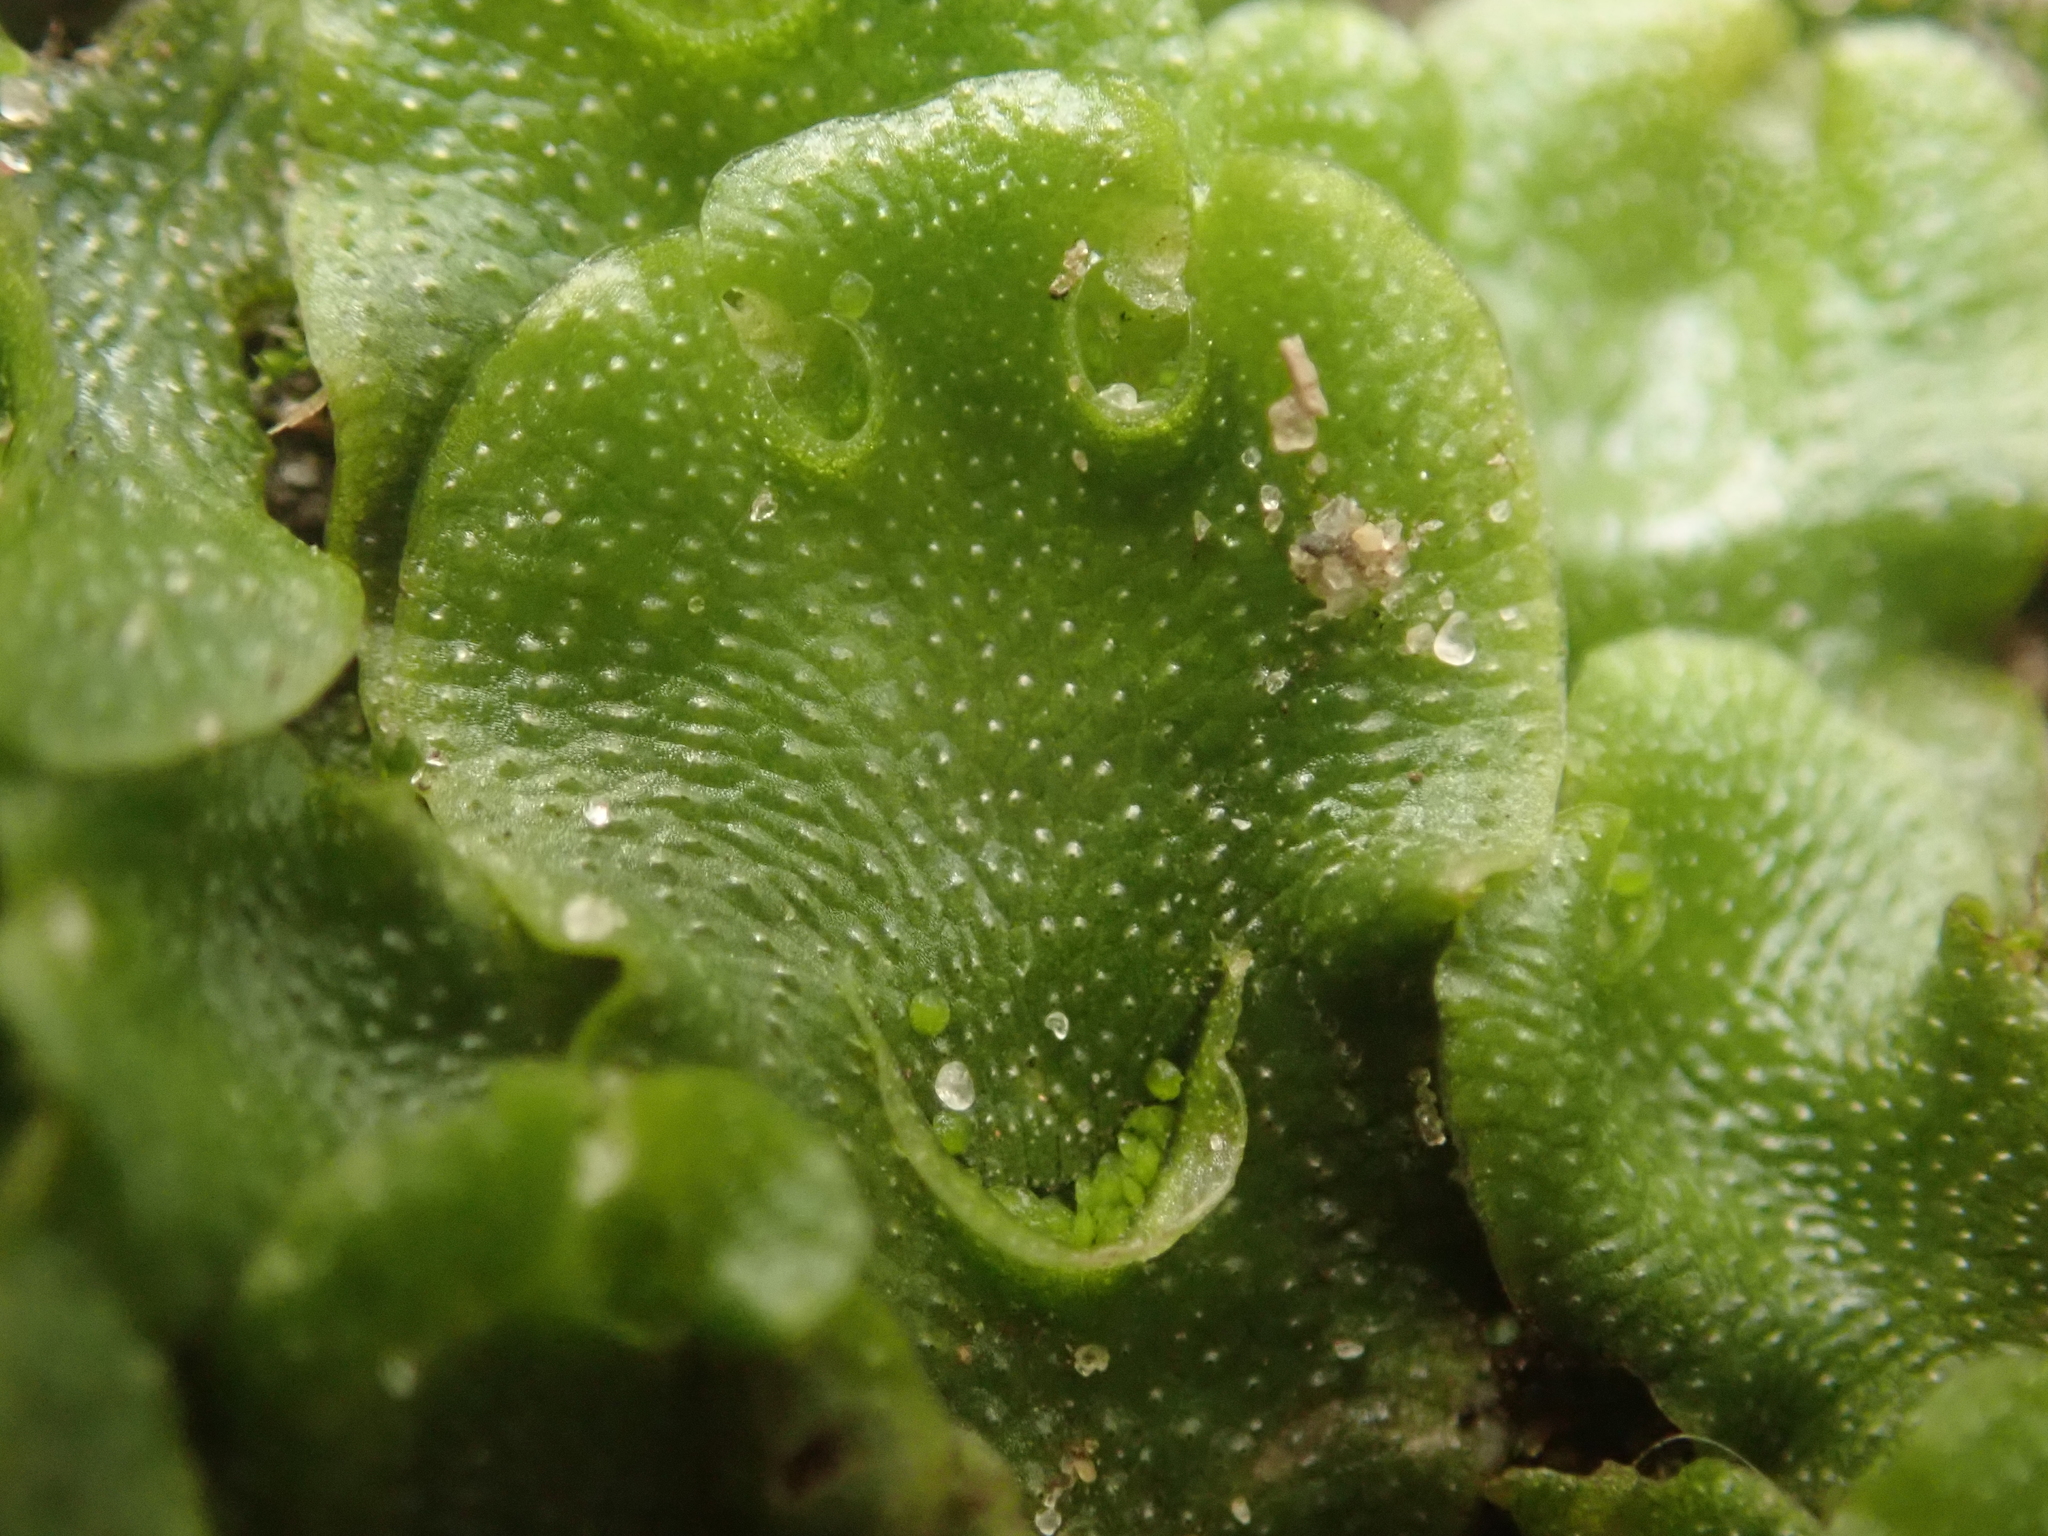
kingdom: Plantae
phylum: Marchantiophyta
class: Marchantiopsida
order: Lunulariales
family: Lunulariaceae
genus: Lunularia
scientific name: Lunularia cruciata
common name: Crescent-cup liverwort
